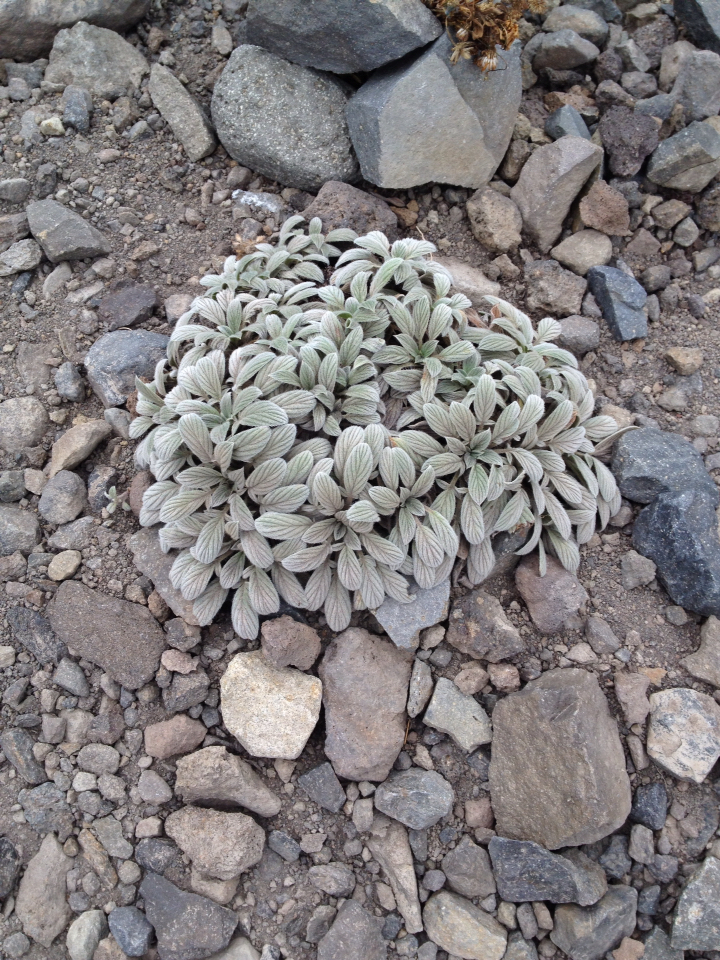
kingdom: Plantae
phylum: Tracheophyta
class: Magnoliopsida
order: Boraginales
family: Hydrophyllaceae
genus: Phacelia
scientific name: Phacelia hastata
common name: Silver-leaved phacelia
